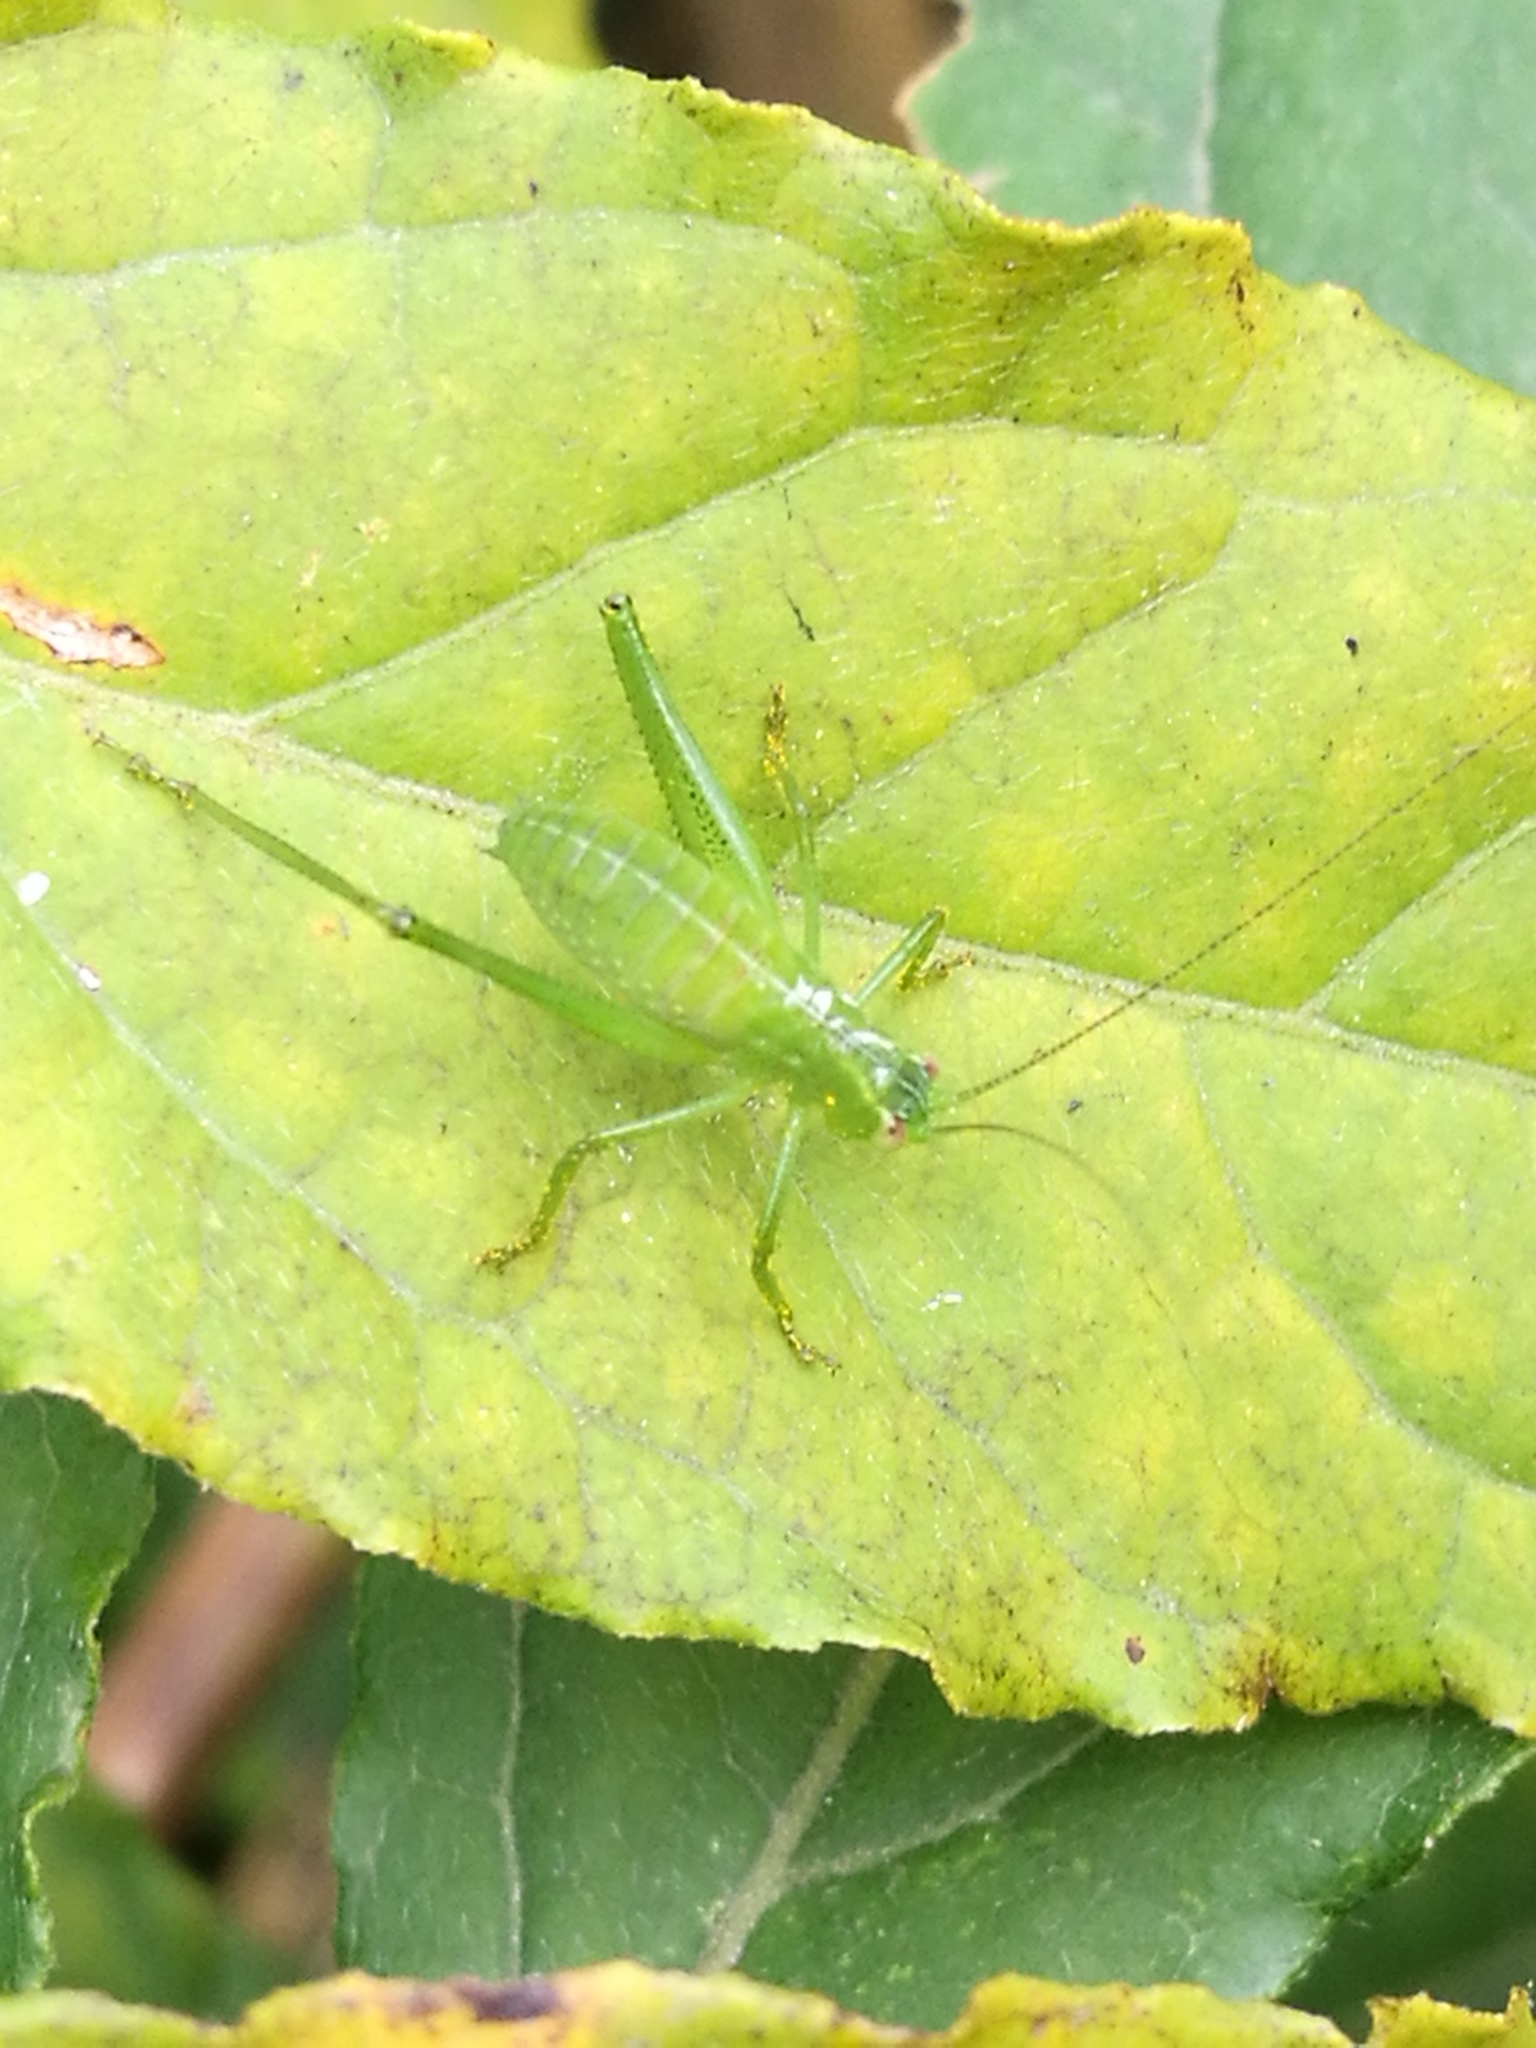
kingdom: Animalia
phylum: Arthropoda
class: Insecta
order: Orthoptera
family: Tettigoniidae
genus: Caedicia
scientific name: Caedicia simplex
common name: Common garden katydid
